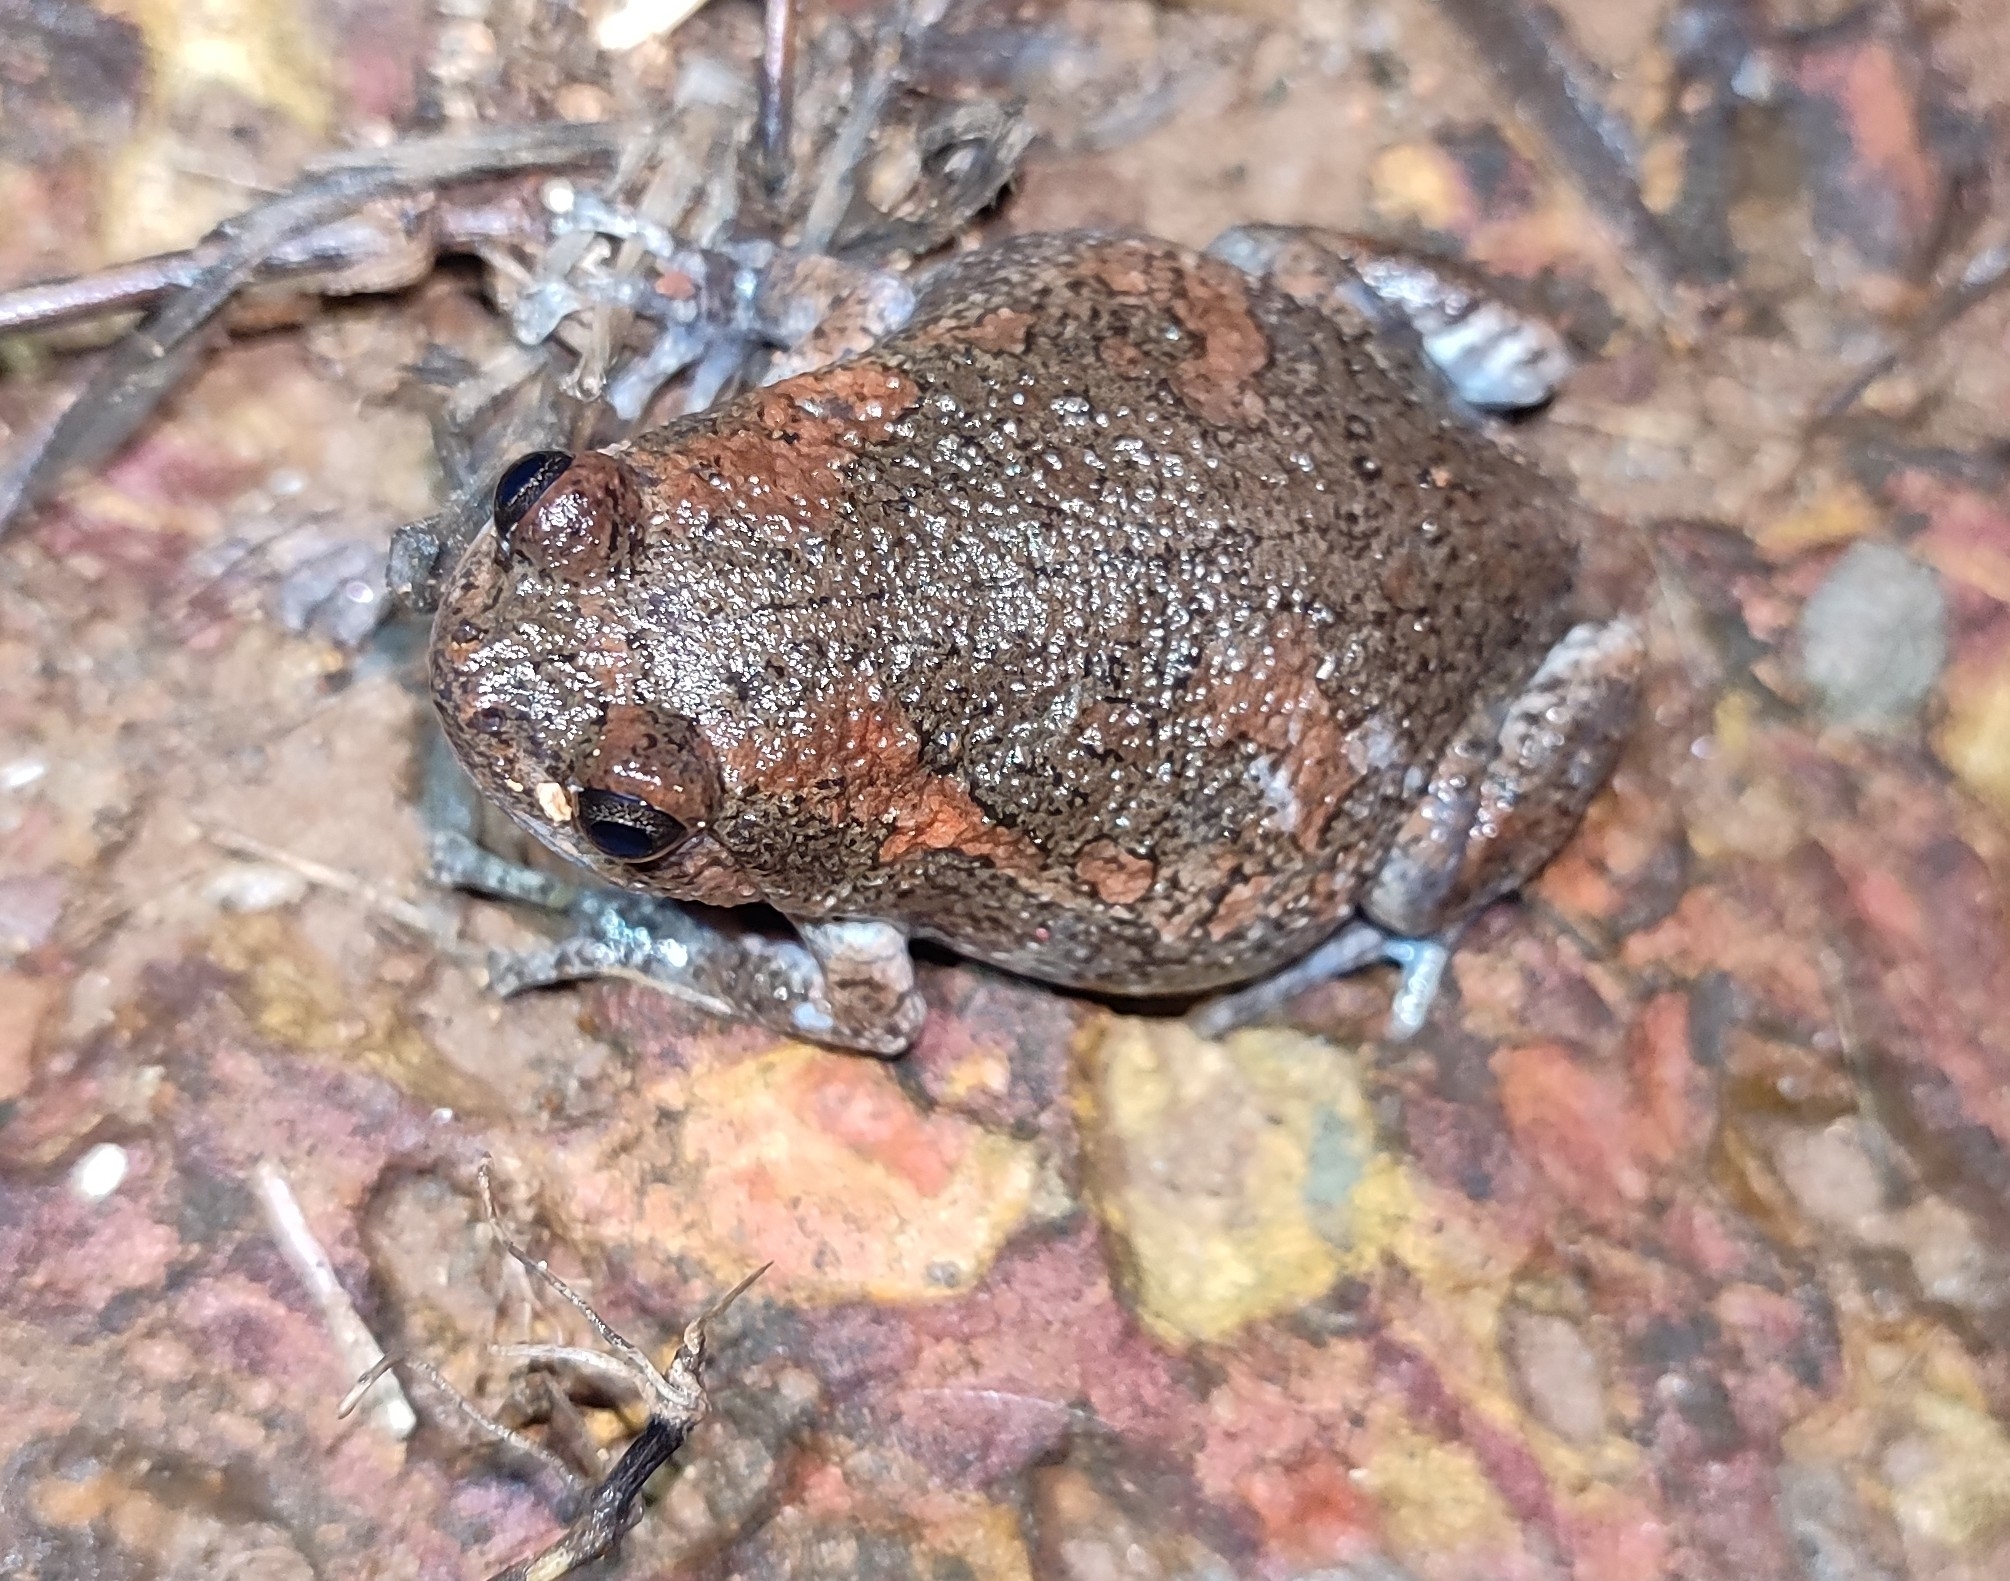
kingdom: Animalia
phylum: Chordata
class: Amphibia
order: Anura
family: Microhylidae
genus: Uperodon
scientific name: Uperodon taprobanicus
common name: Ceylon kaloula
